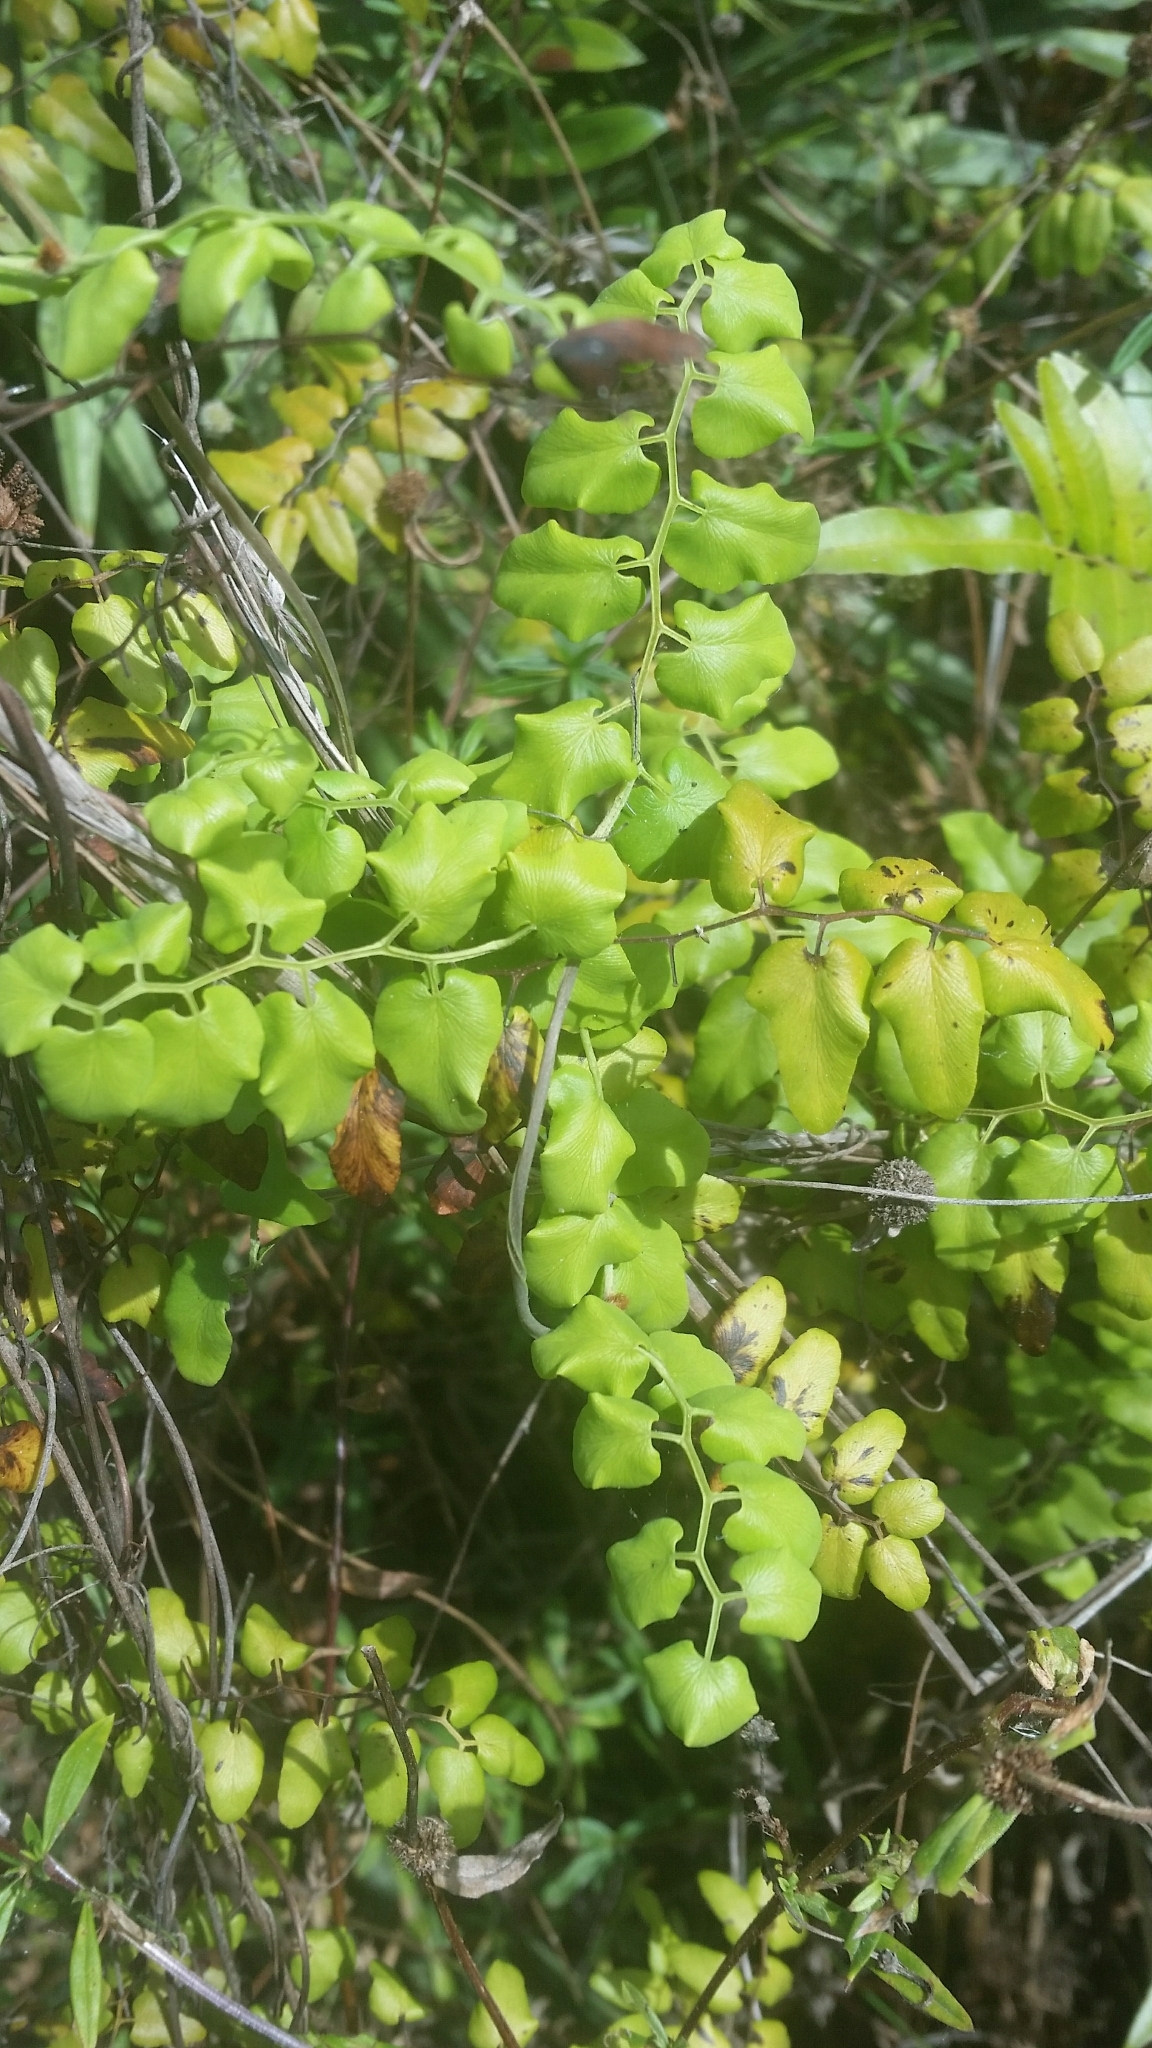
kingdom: Plantae
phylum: Tracheophyta
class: Polypodiopsida
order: Schizaeales
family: Lygodiaceae
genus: Lygodium
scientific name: Lygodium microphyllum
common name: Small-leaf climbing fern
